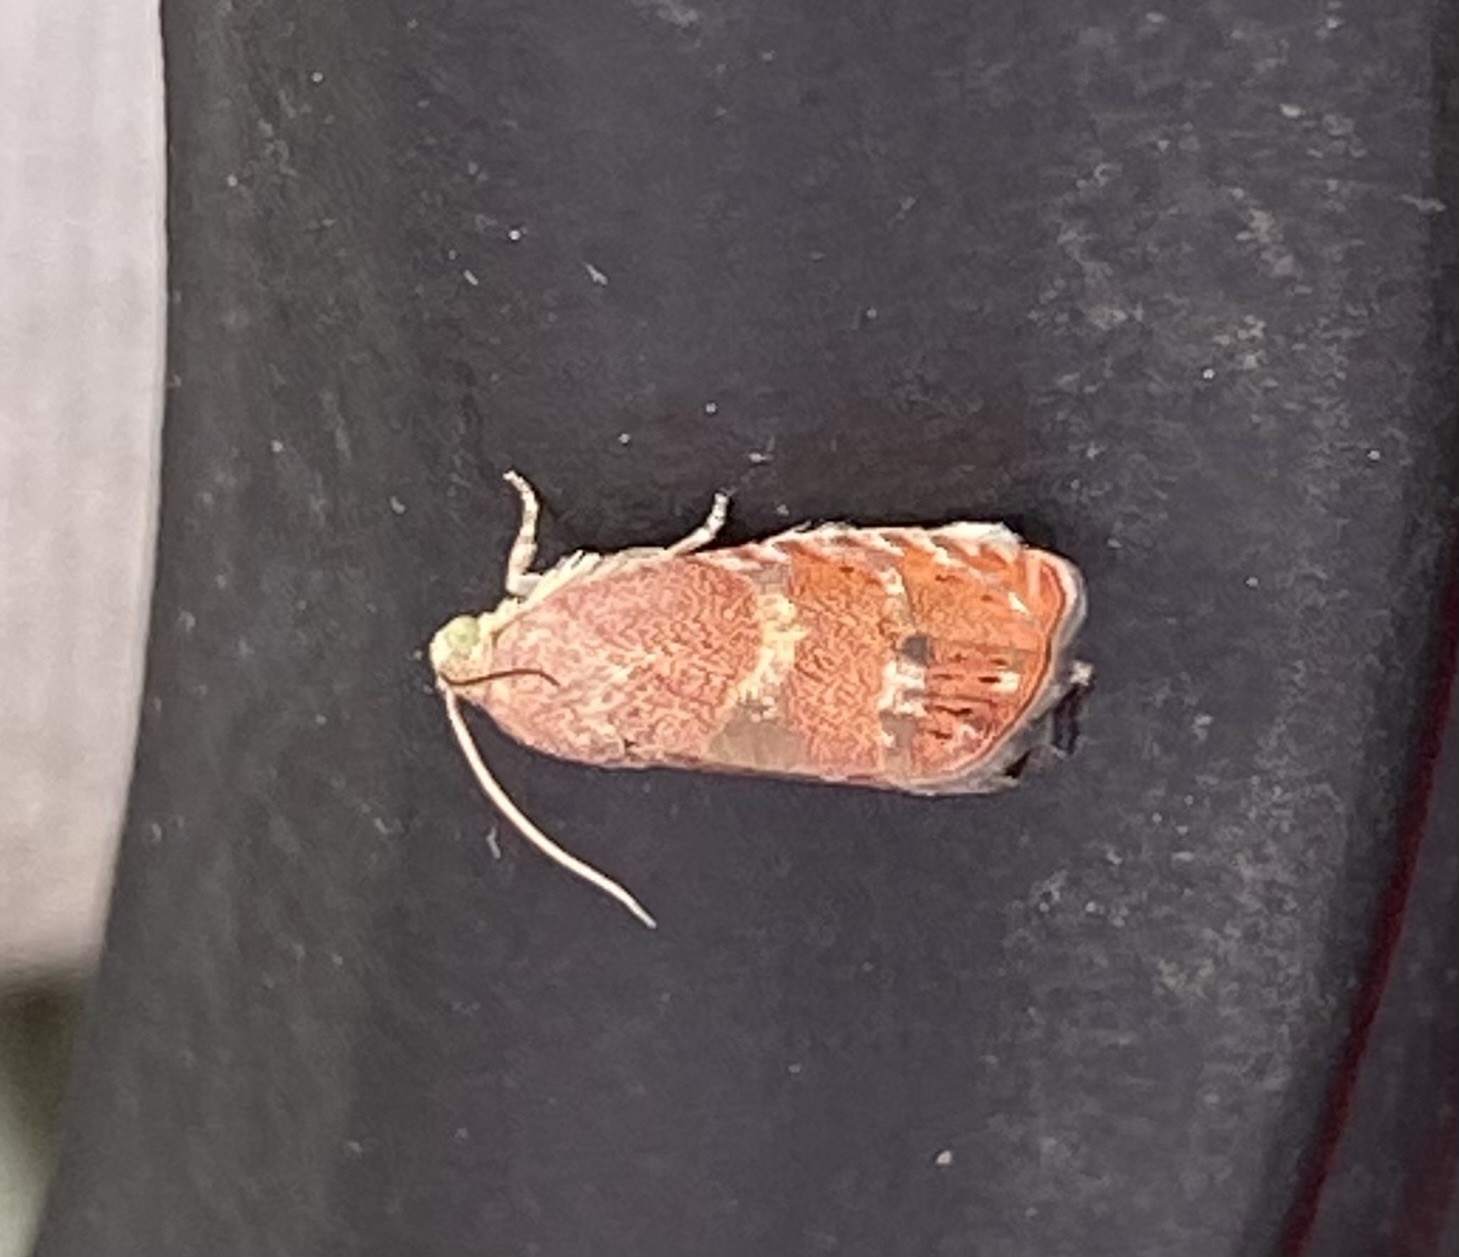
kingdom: Animalia
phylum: Arthropoda
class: Insecta
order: Lepidoptera
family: Tortricidae
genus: Cydia
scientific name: Cydia latiferreana
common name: Filbertworm moth
